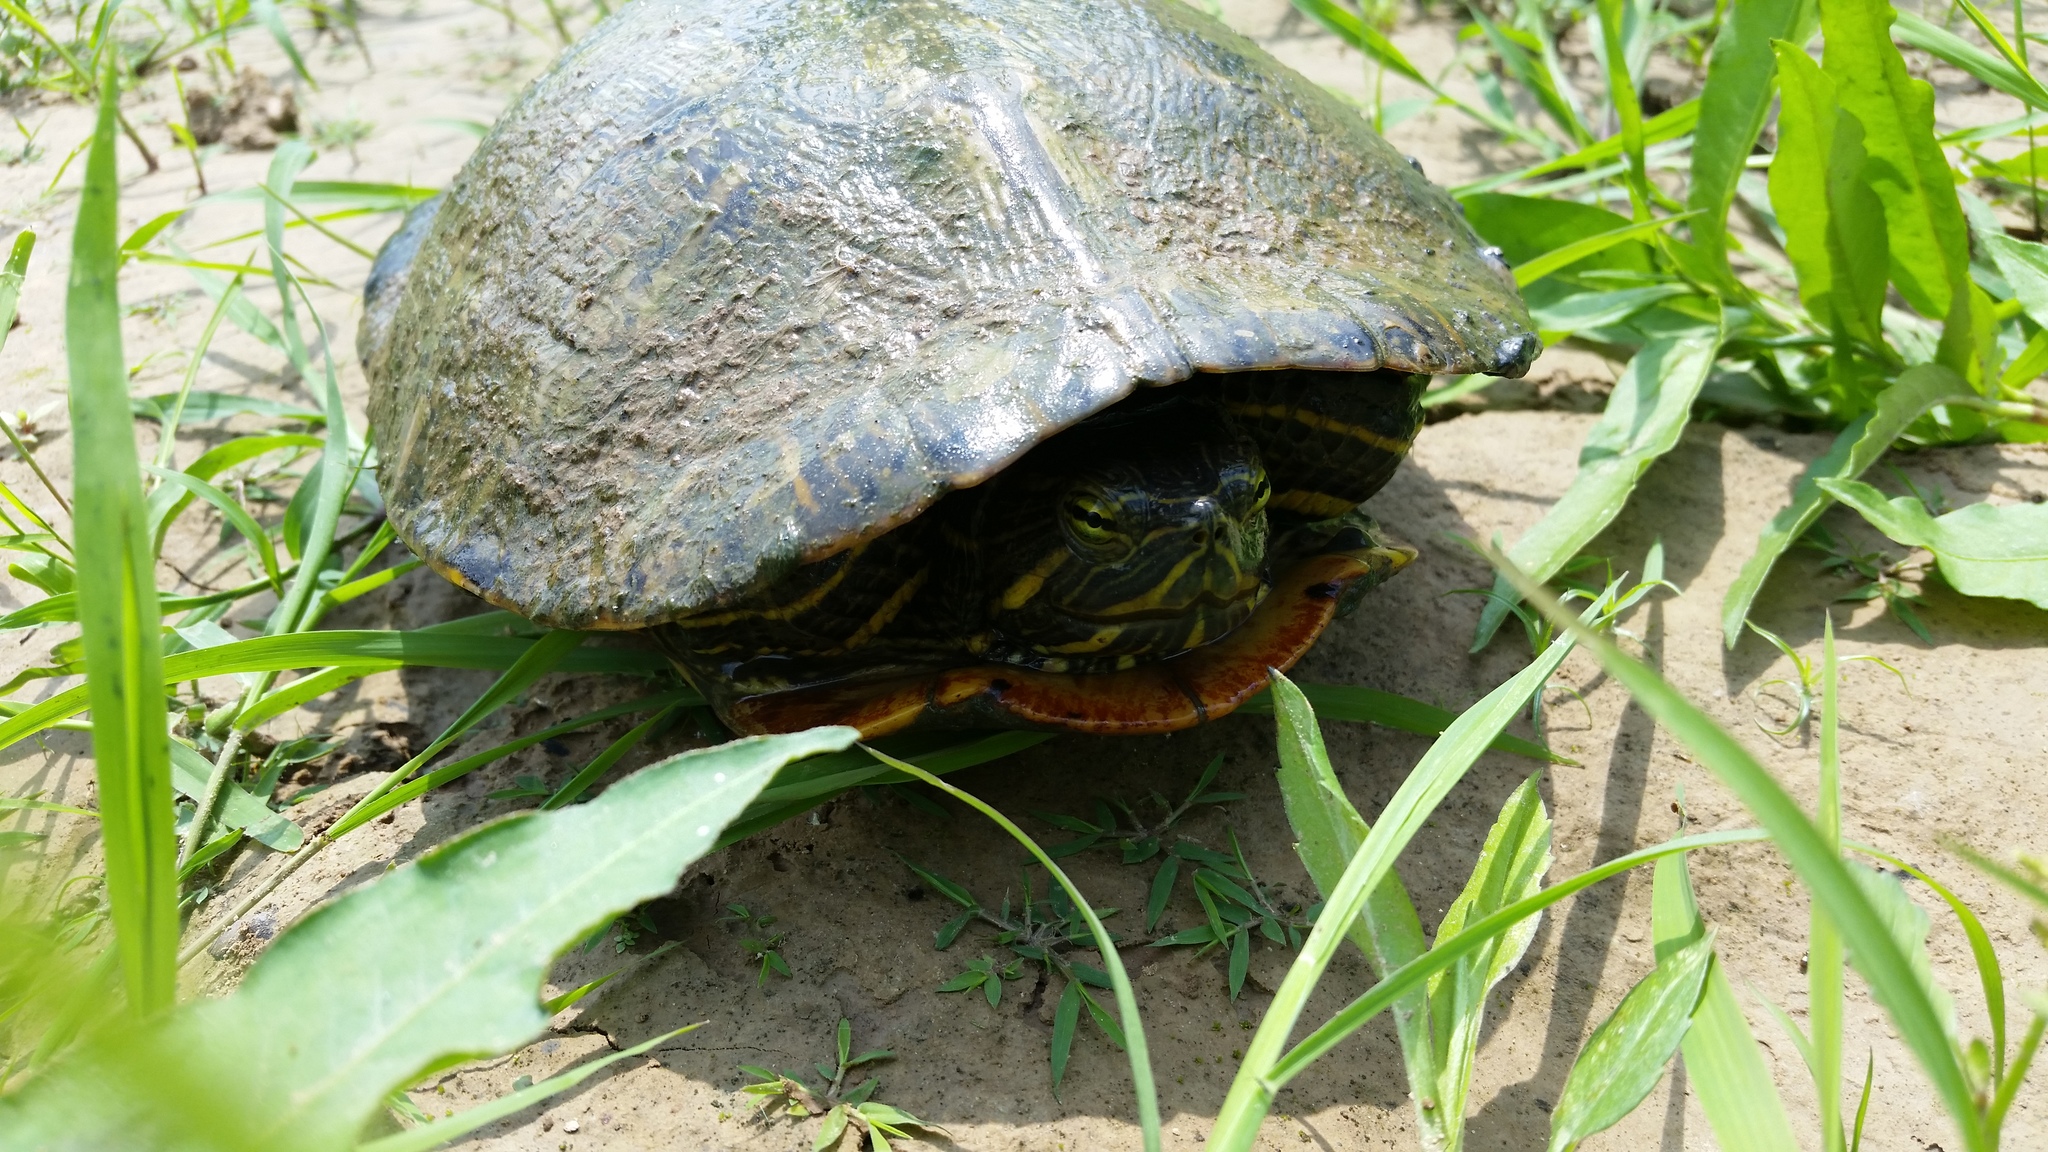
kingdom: Animalia
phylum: Chordata
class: Testudines
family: Emydidae
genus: Trachemys
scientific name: Trachemys scripta
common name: Slider
